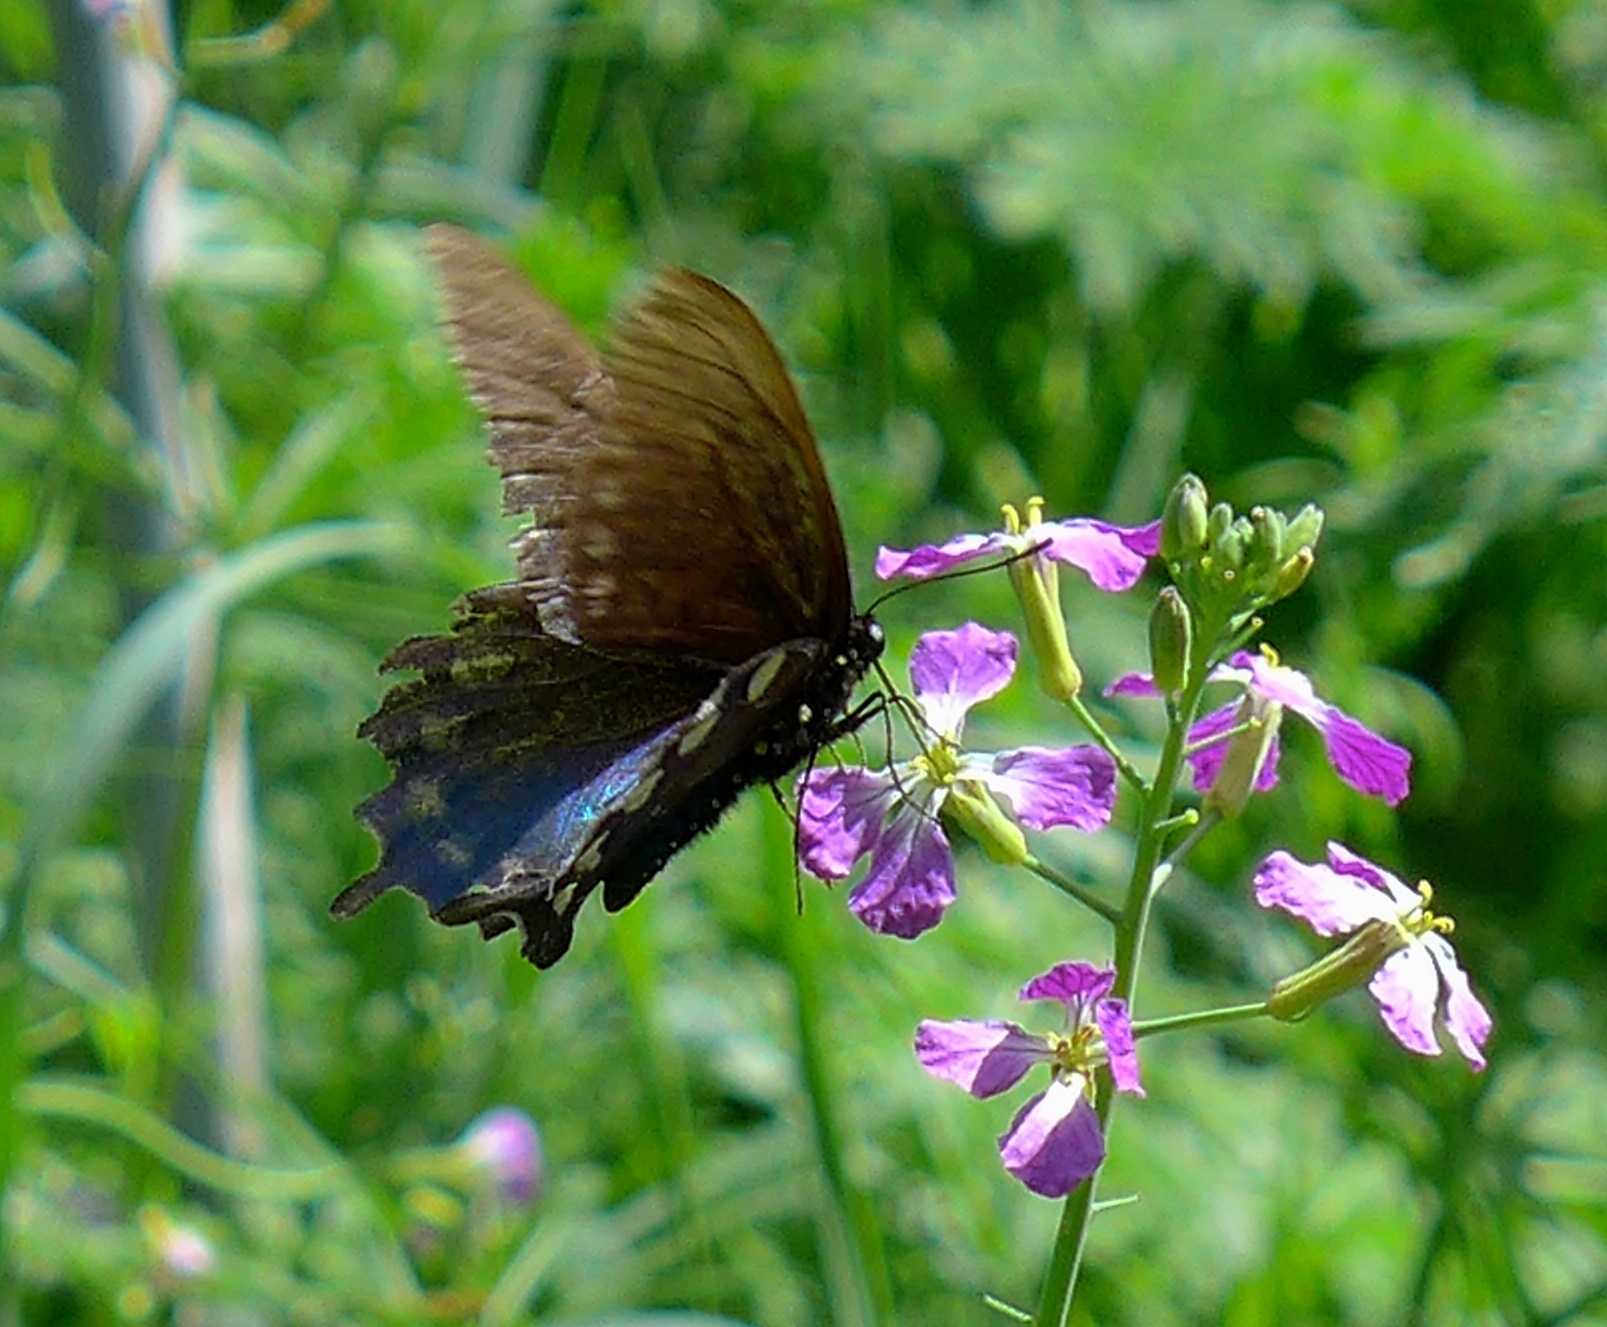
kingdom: Animalia
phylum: Arthropoda
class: Insecta
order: Lepidoptera
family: Papilionidae
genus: Battus
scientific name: Battus philenor
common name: Pipevine swallowtail
